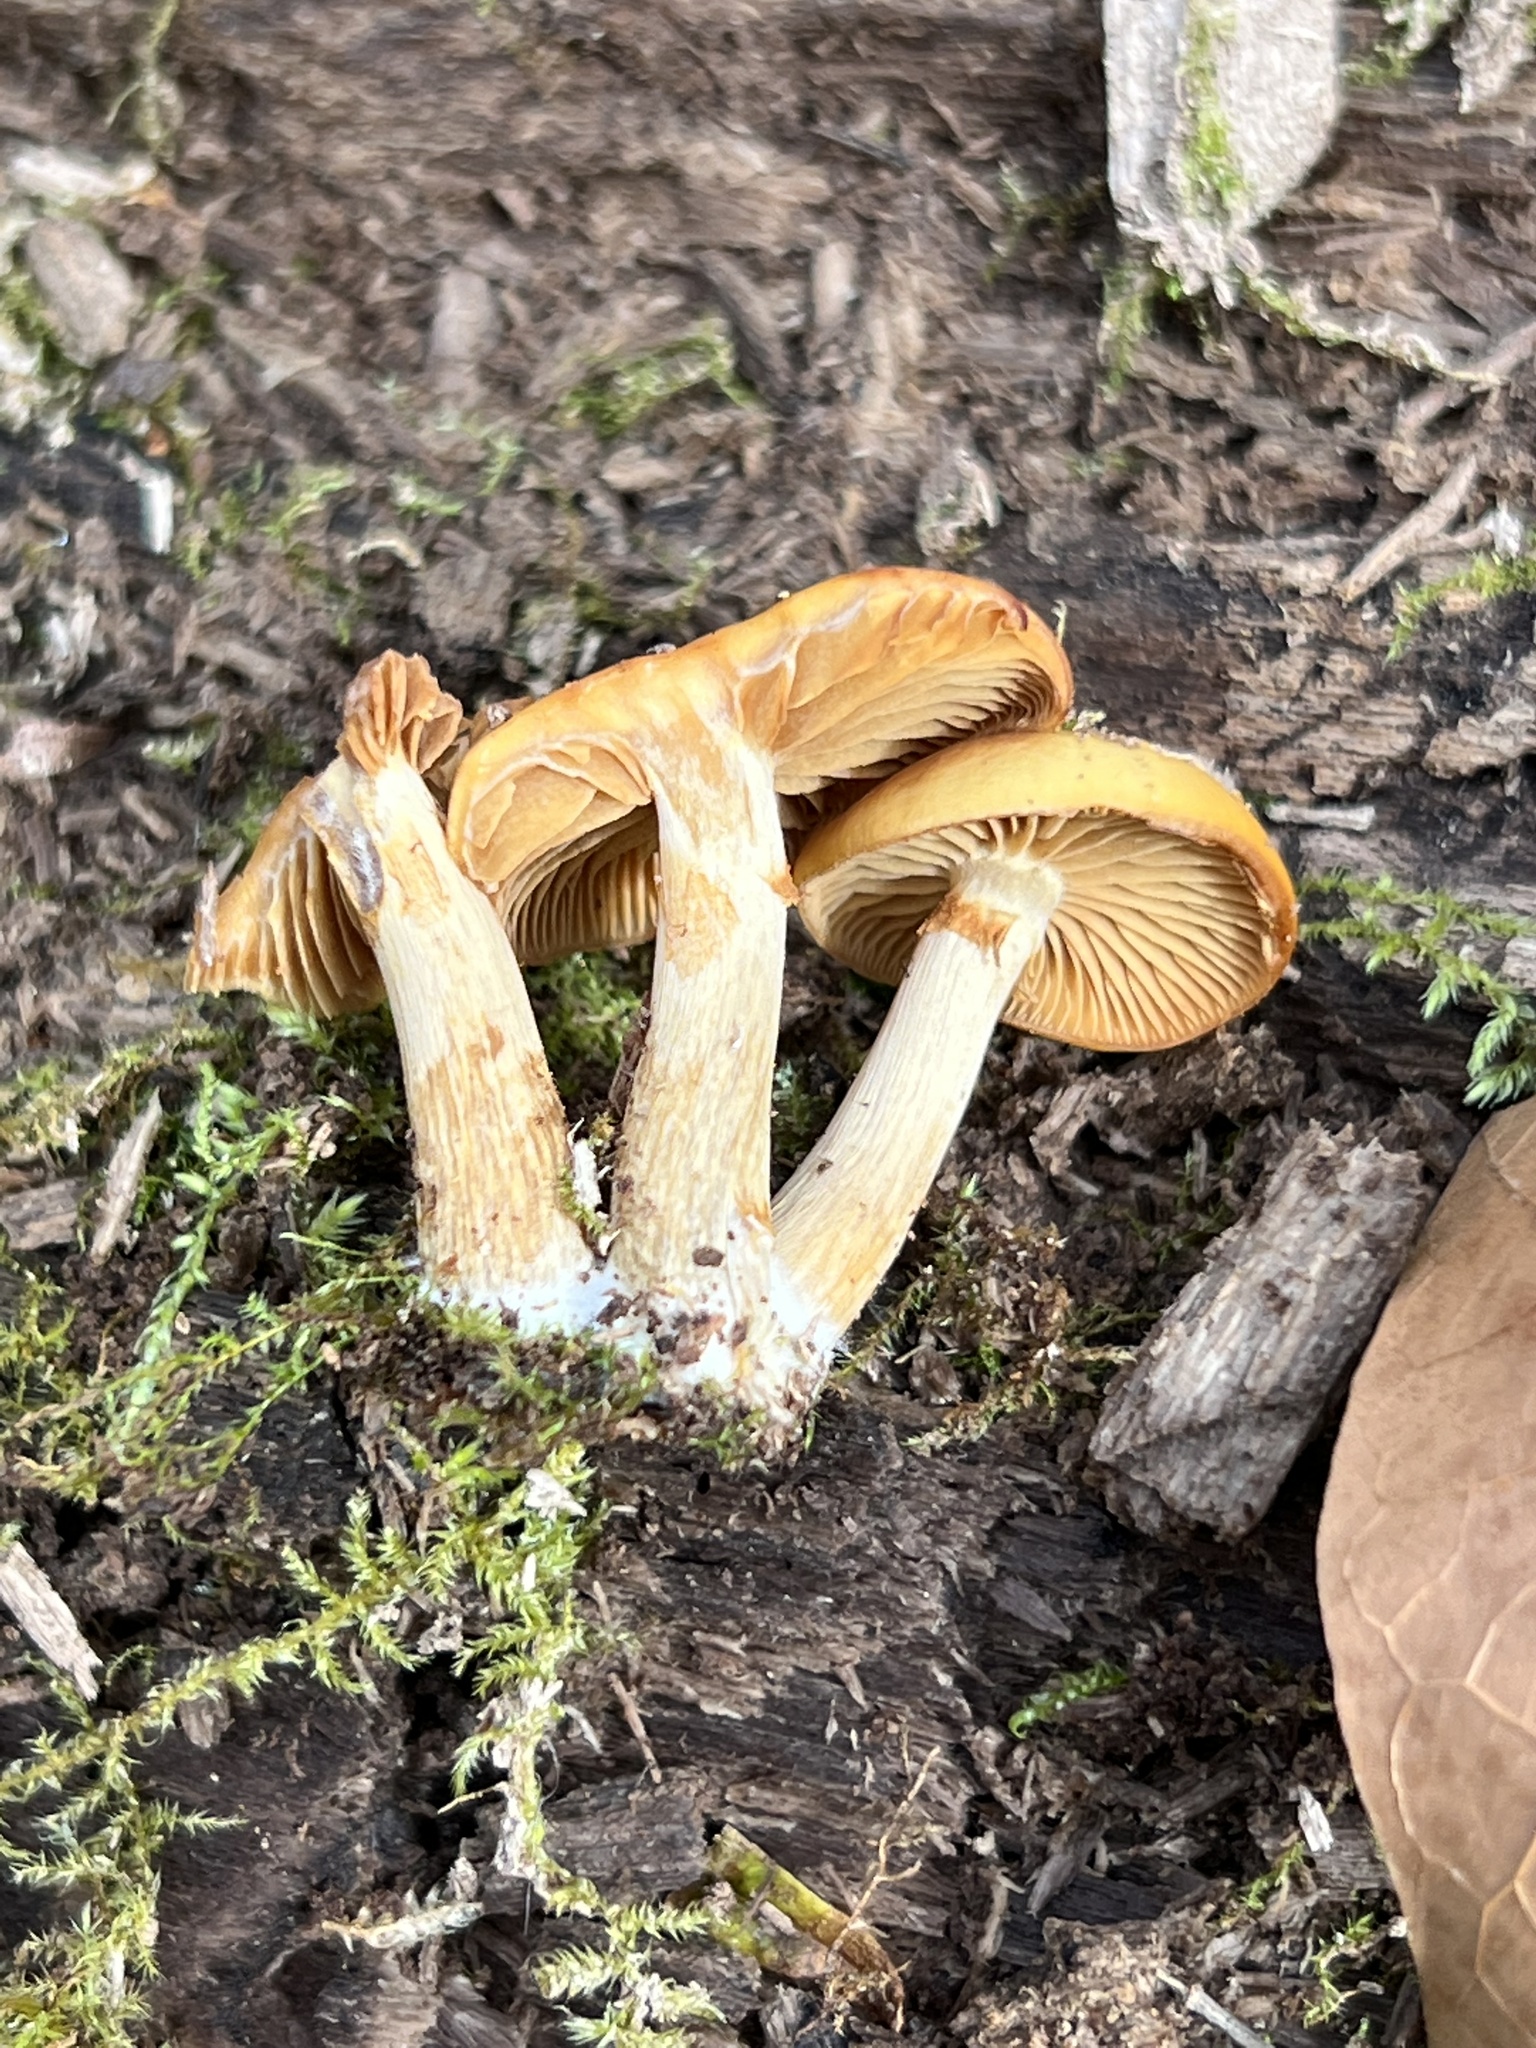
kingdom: Fungi
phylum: Basidiomycota
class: Agaricomycetes
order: Agaricales
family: Hymenogastraceae
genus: Galerina
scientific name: Galerina marginata
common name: Funeral bell
